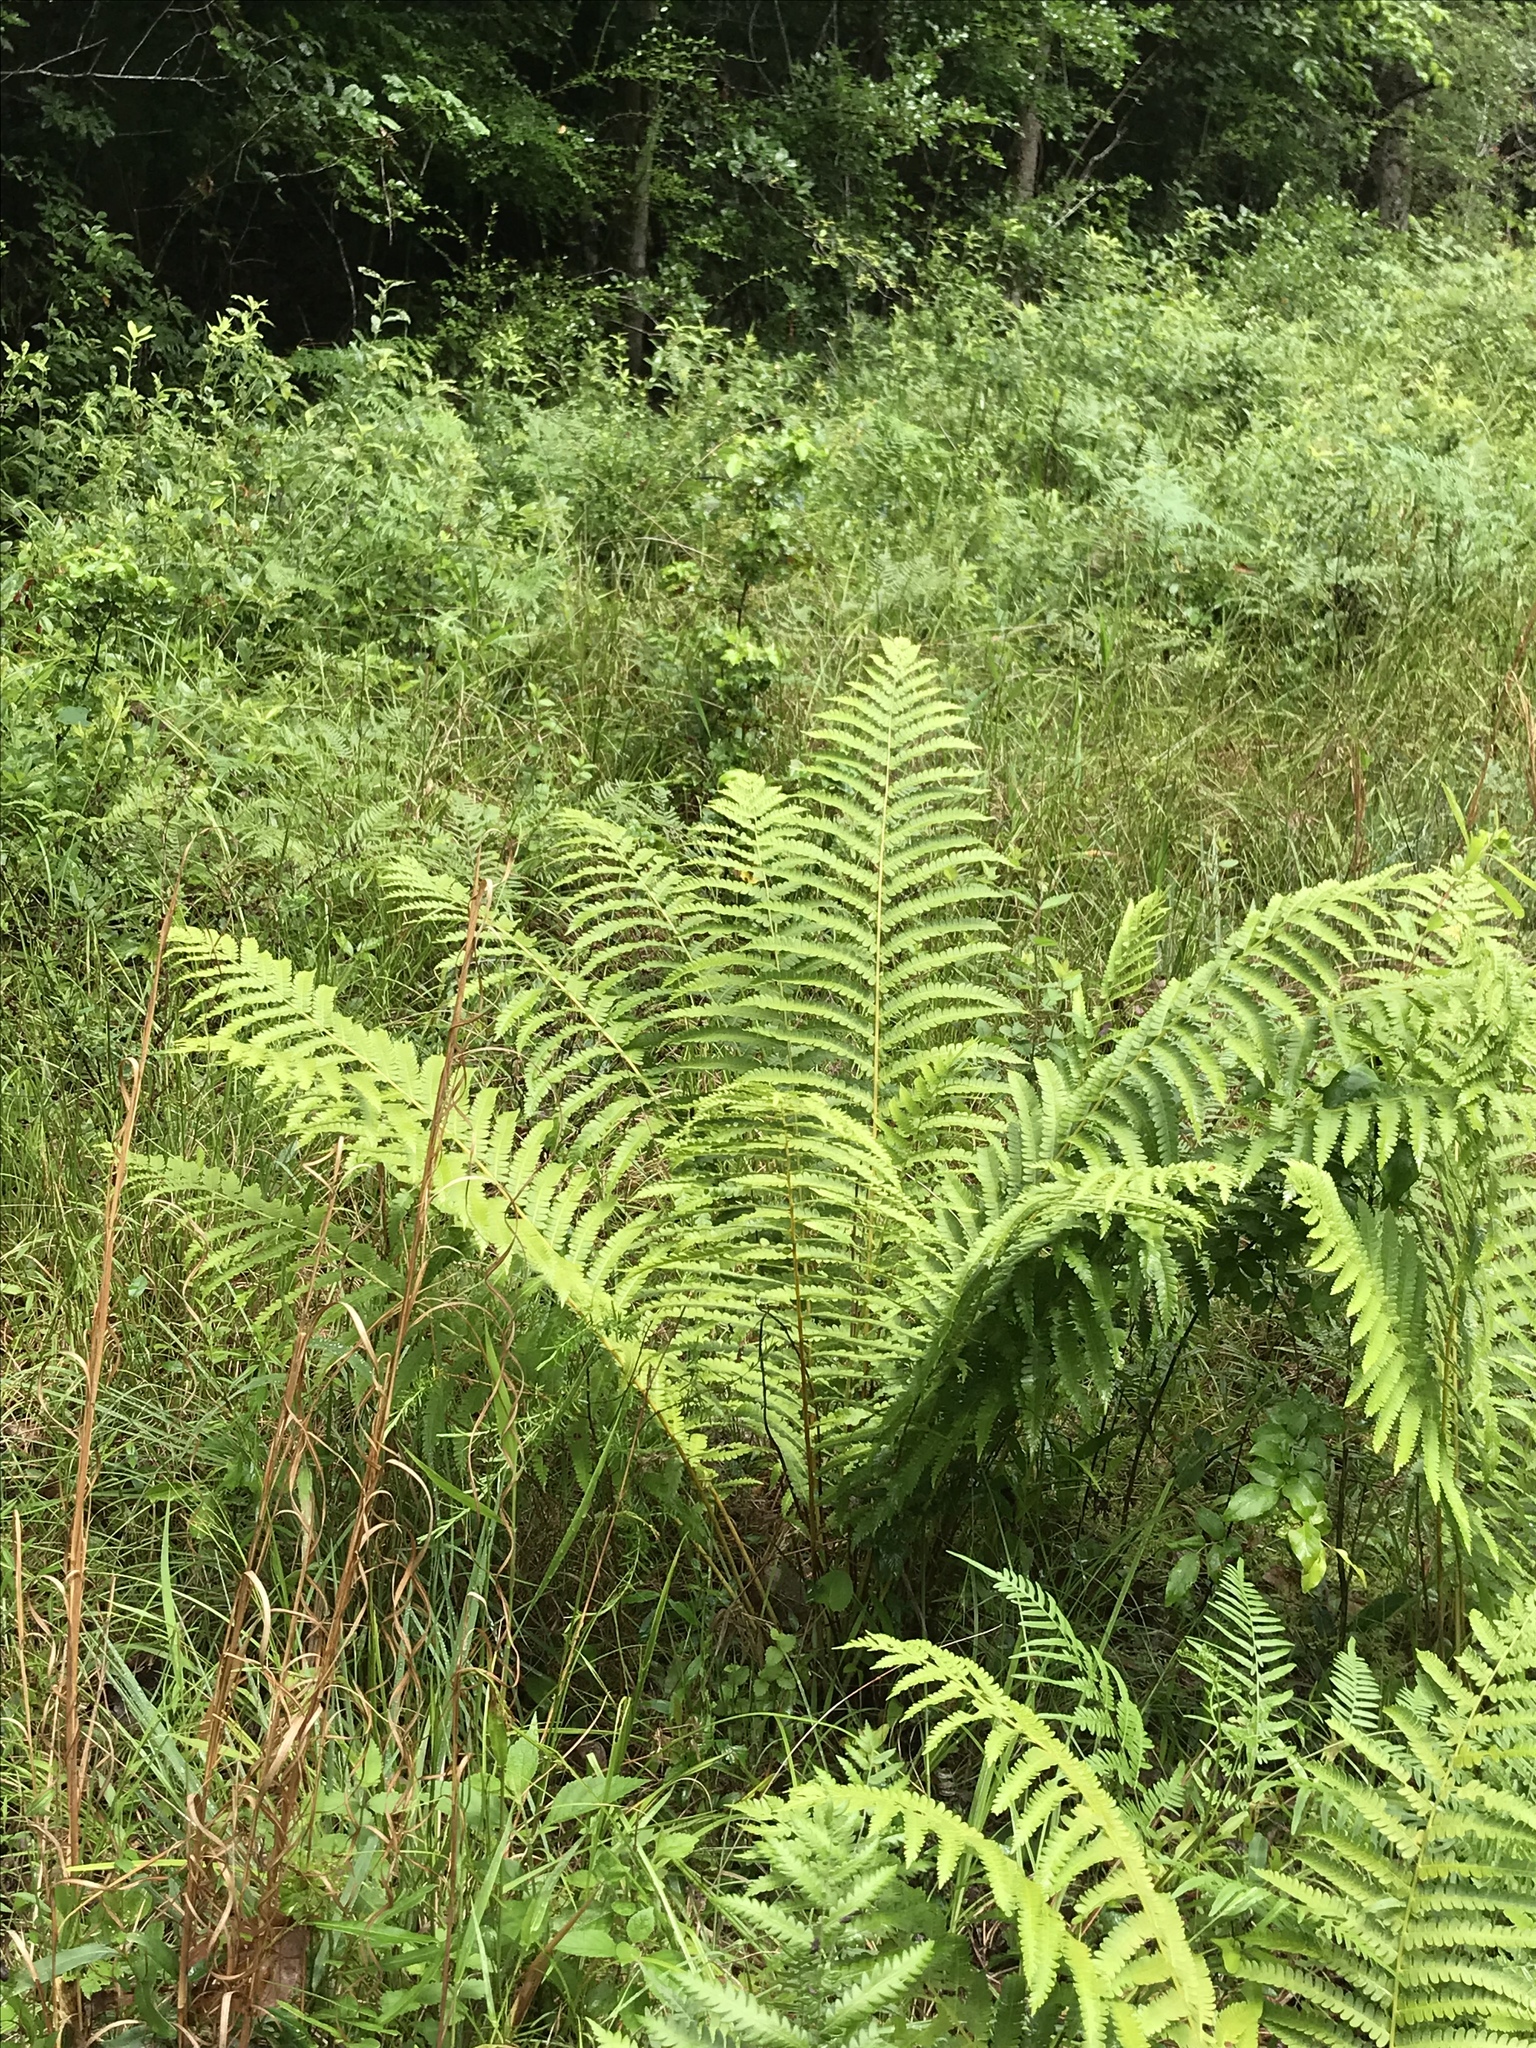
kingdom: Plantae
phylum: Tracheophyta
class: Polypodiopsida
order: Osmundales
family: Osmundaceae
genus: Osmundastrum
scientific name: Osmundastrum cinnamomeum
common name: Cinnamon fern
